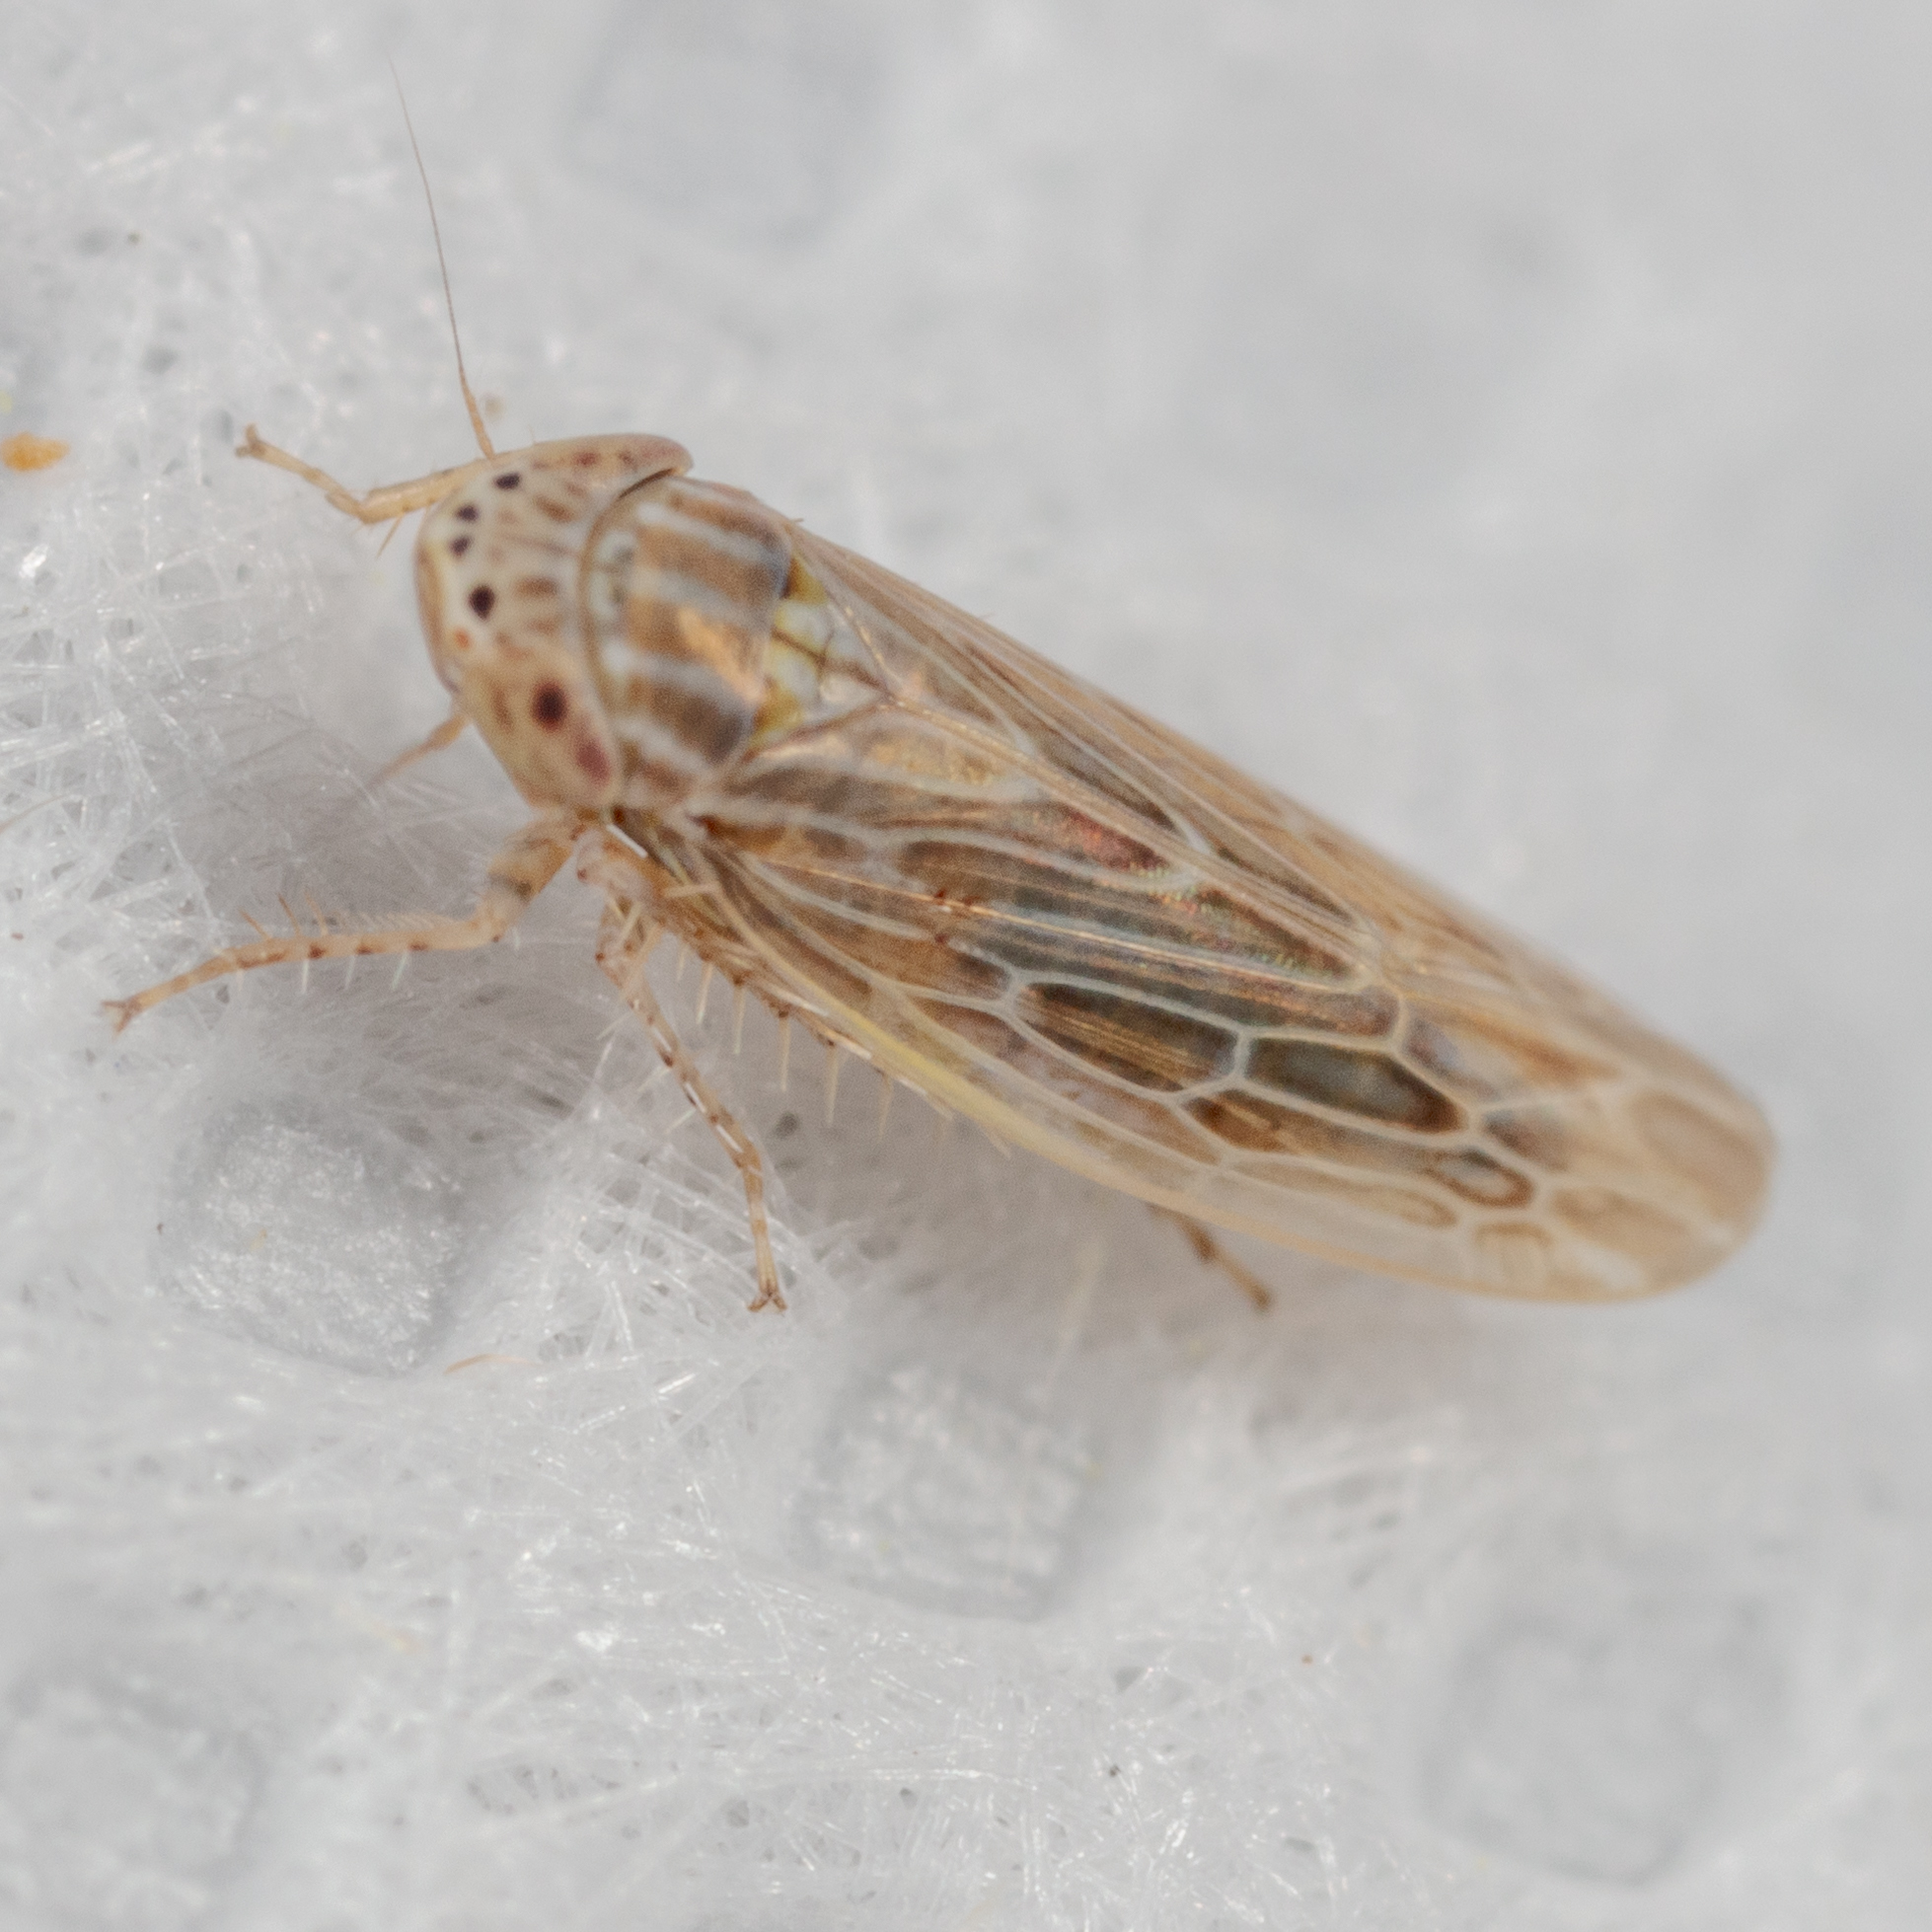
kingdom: Animalia
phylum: Arthropoda
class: Insecta
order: Hemiptera
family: Cicadellidae
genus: Graminella
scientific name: Graminella sonora
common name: Lesser lawn leafhopper
